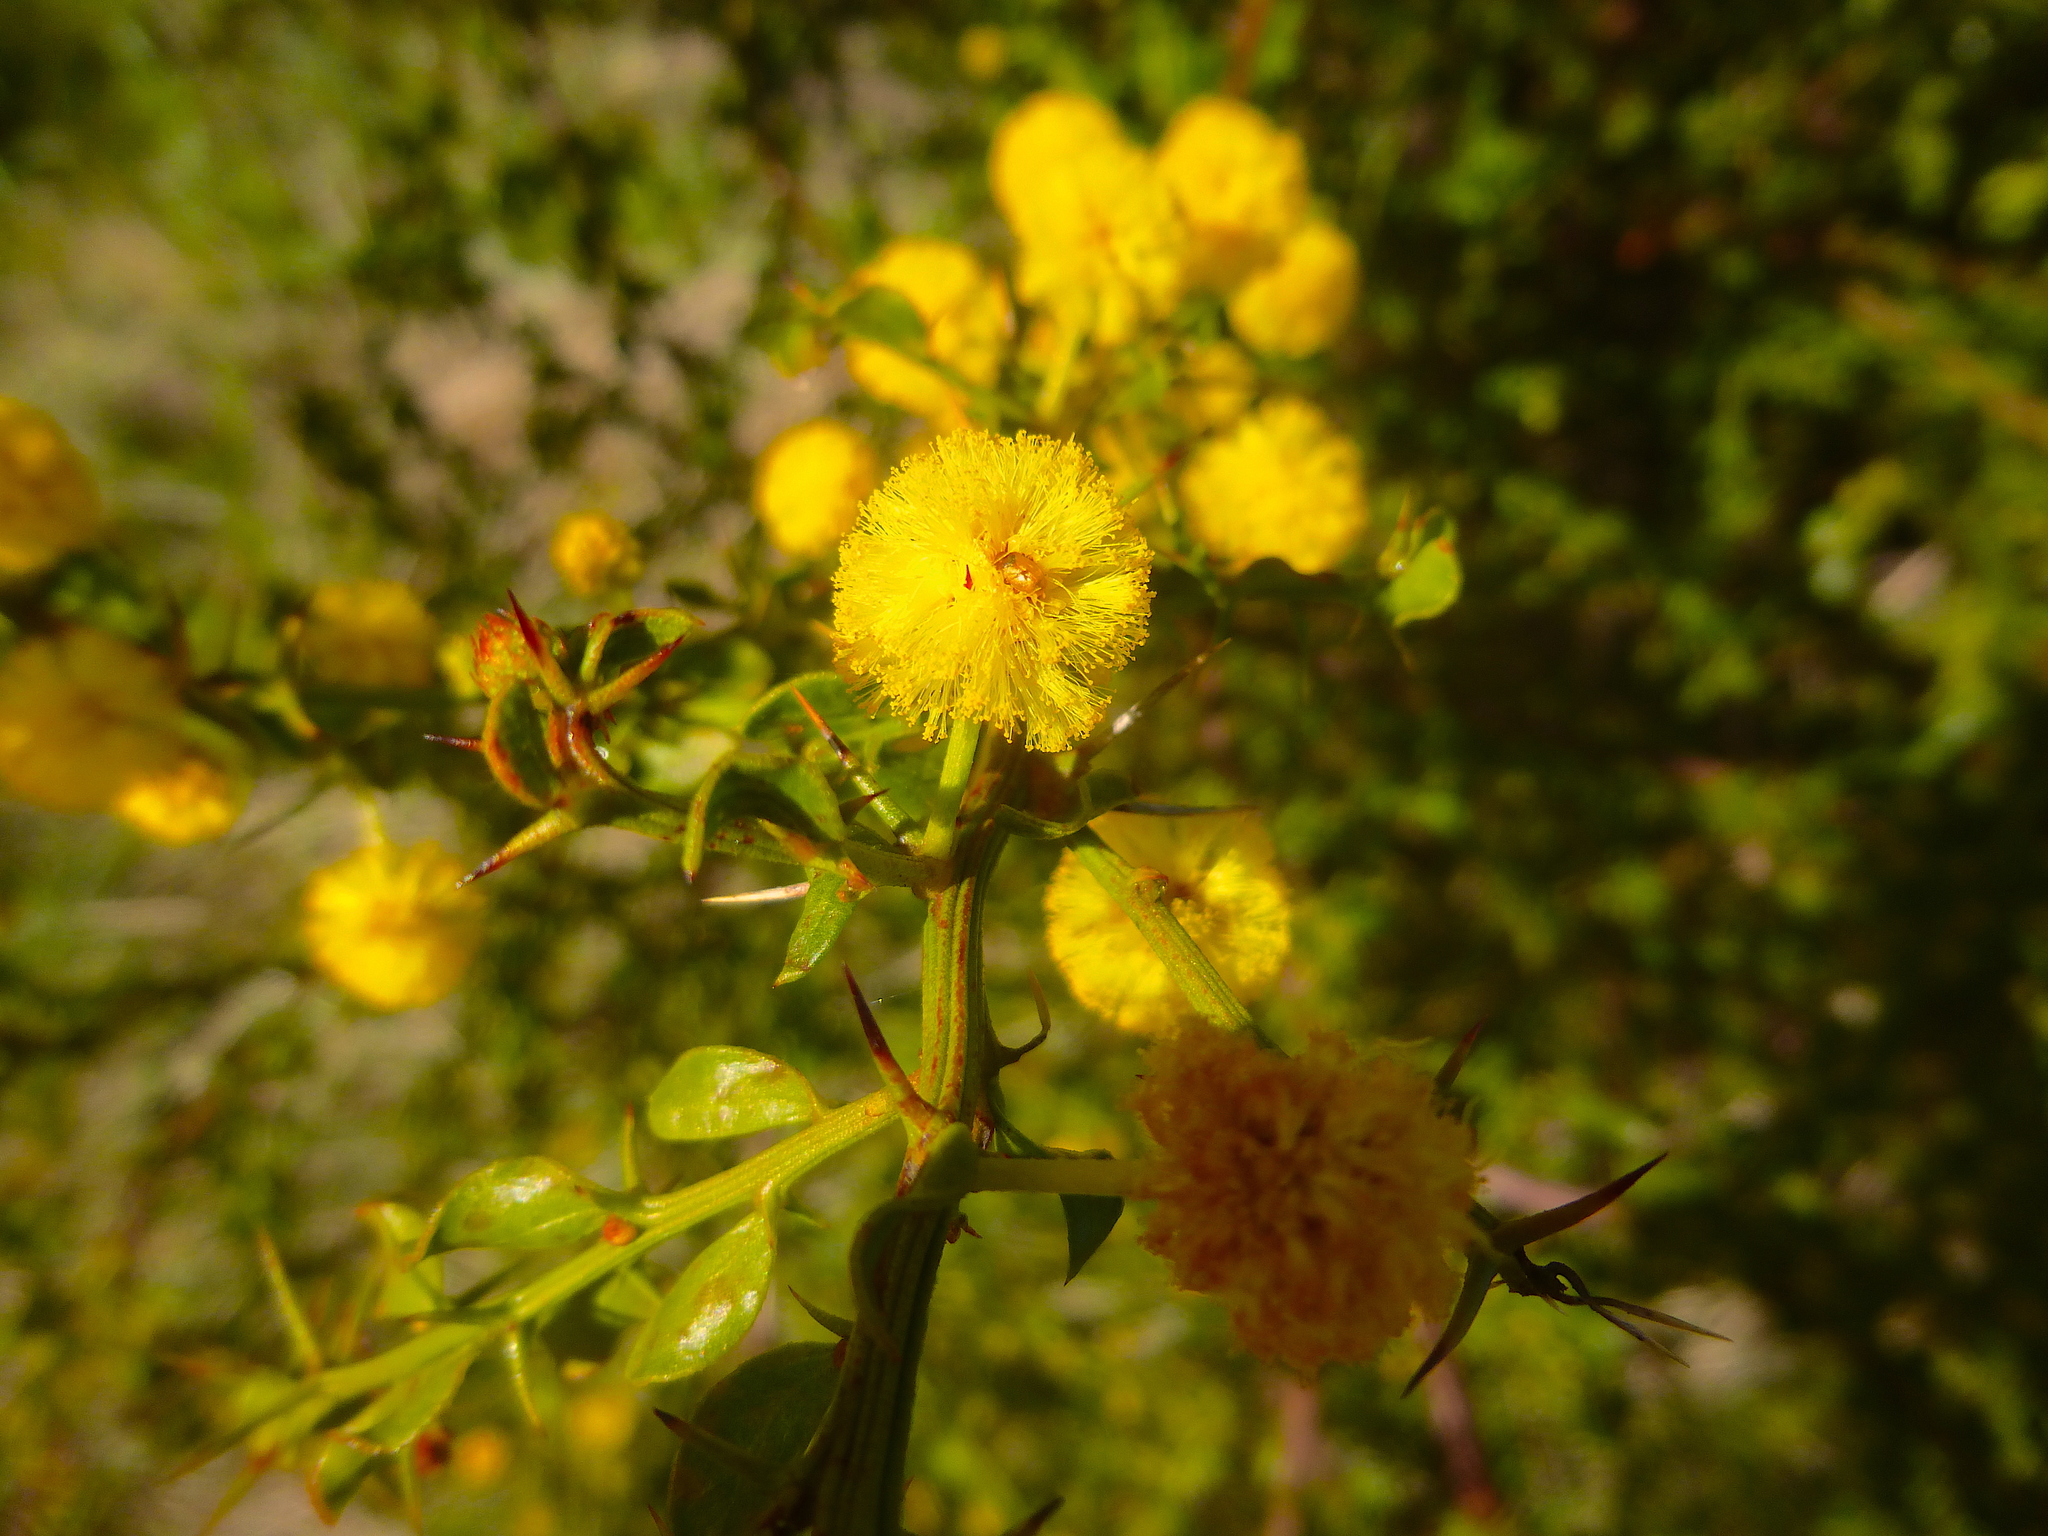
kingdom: Plantae
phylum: Tracheophyta
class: Magnoliopsida
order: Fabales
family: Fabaceae
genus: Acacia
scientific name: Acacia paradoxa
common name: Paradox acacia
